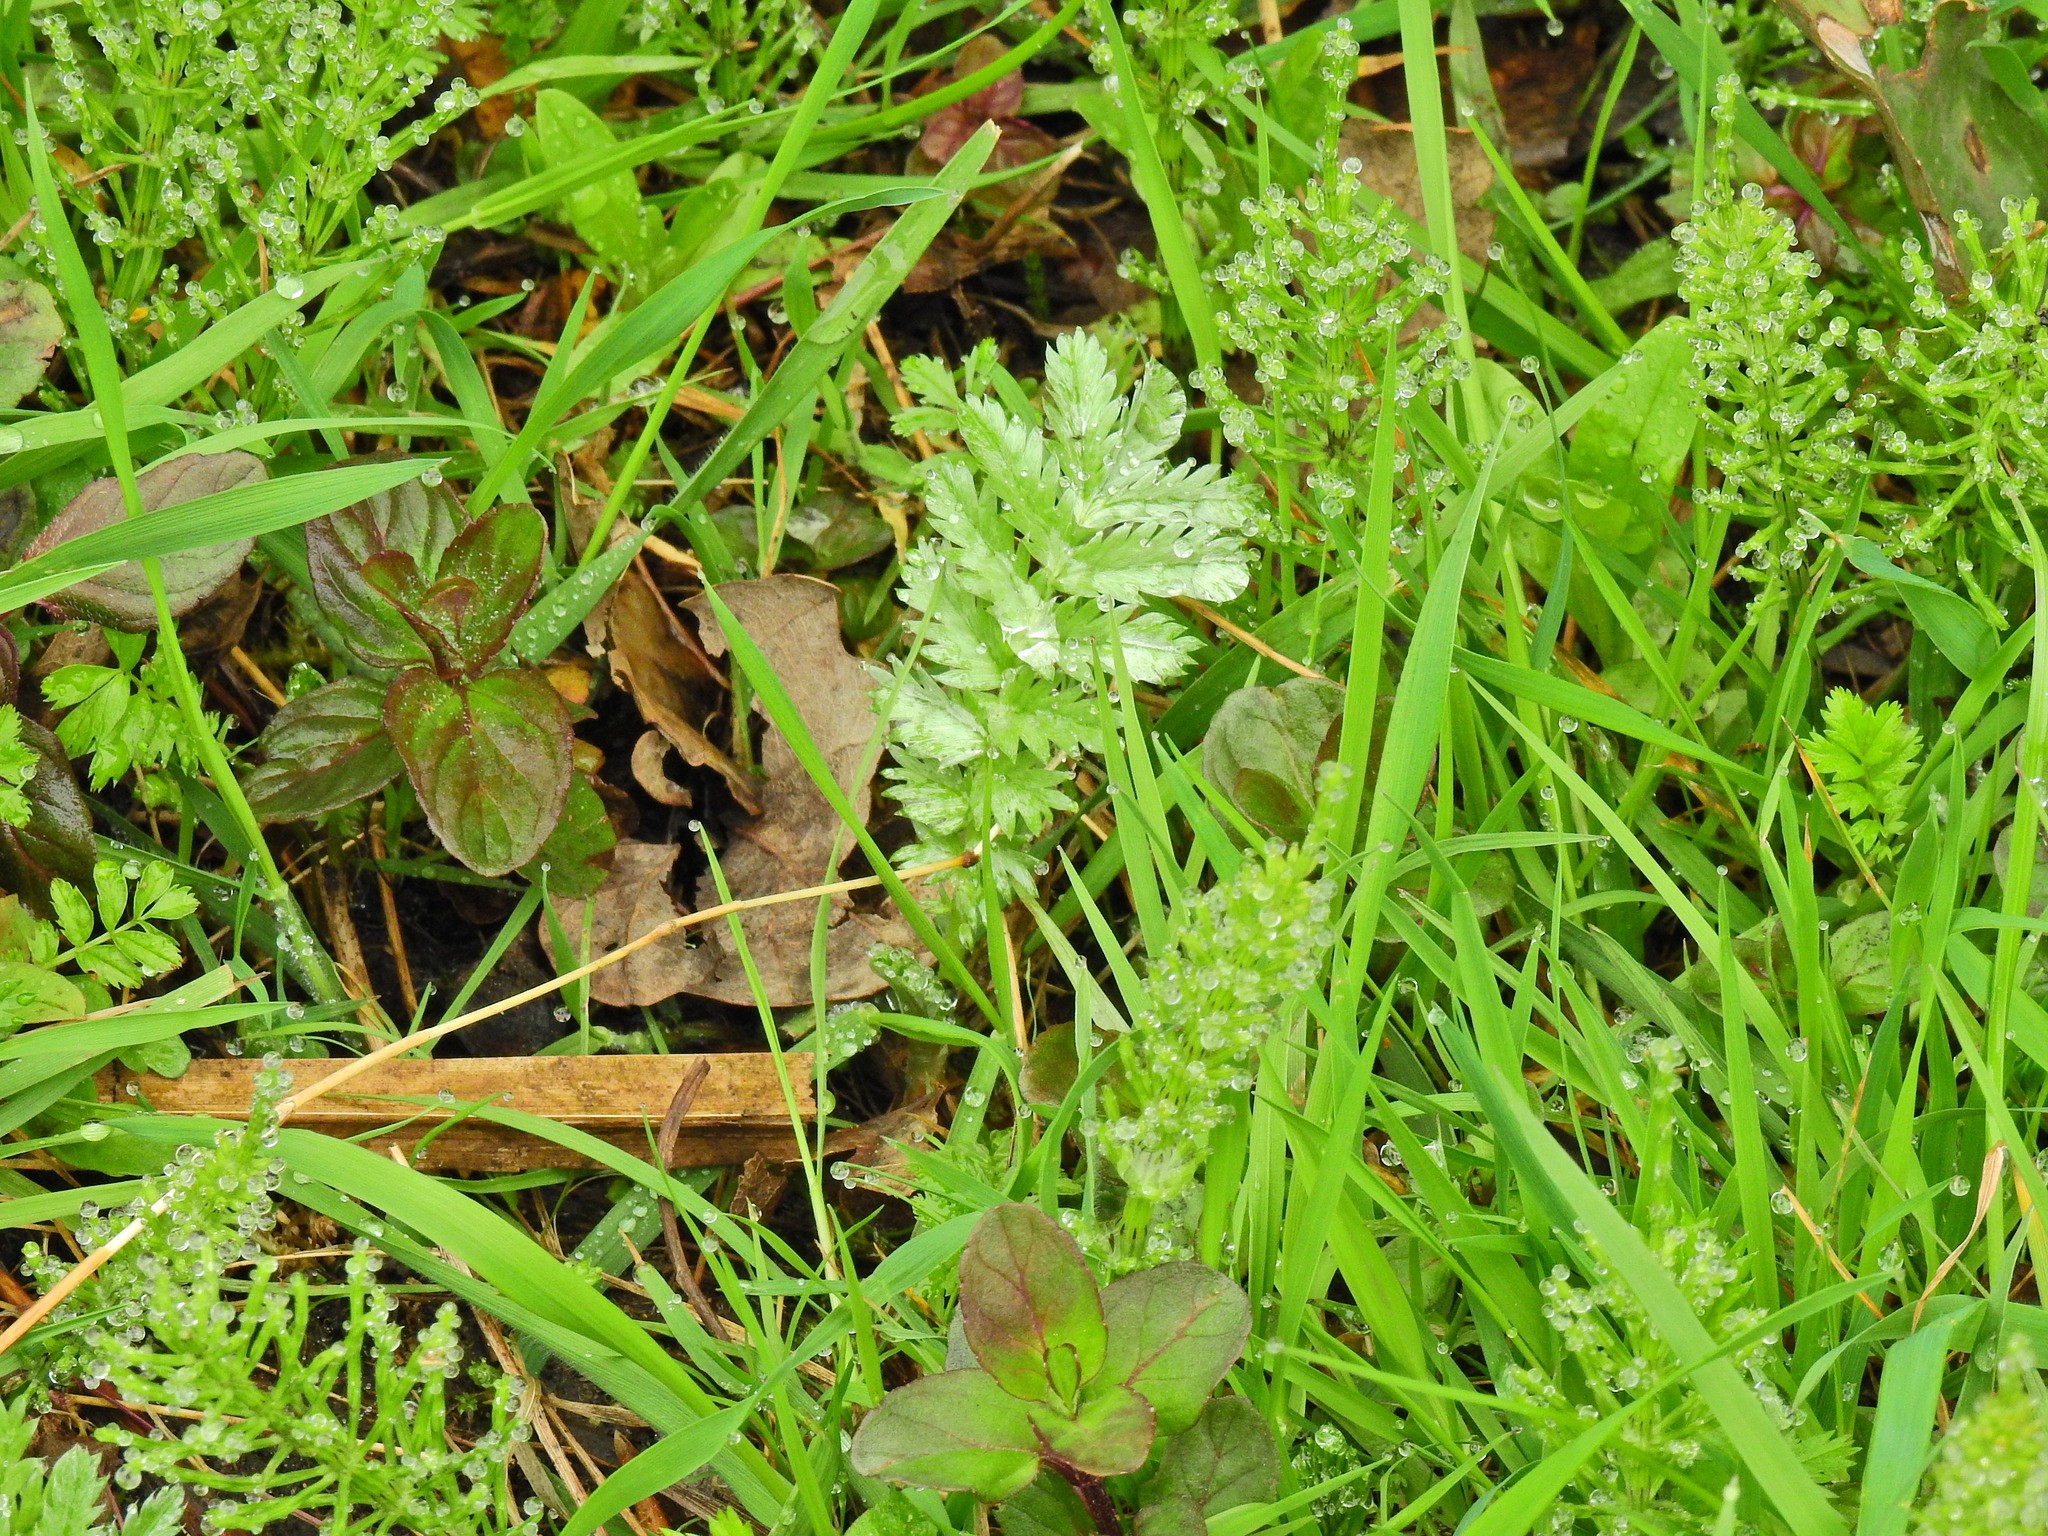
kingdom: Plantae
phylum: Tracheophyta
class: Magnoliopsida
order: Rosales
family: Rosaceae
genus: Argentina
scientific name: Argentina anserina
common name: Common silverweed
